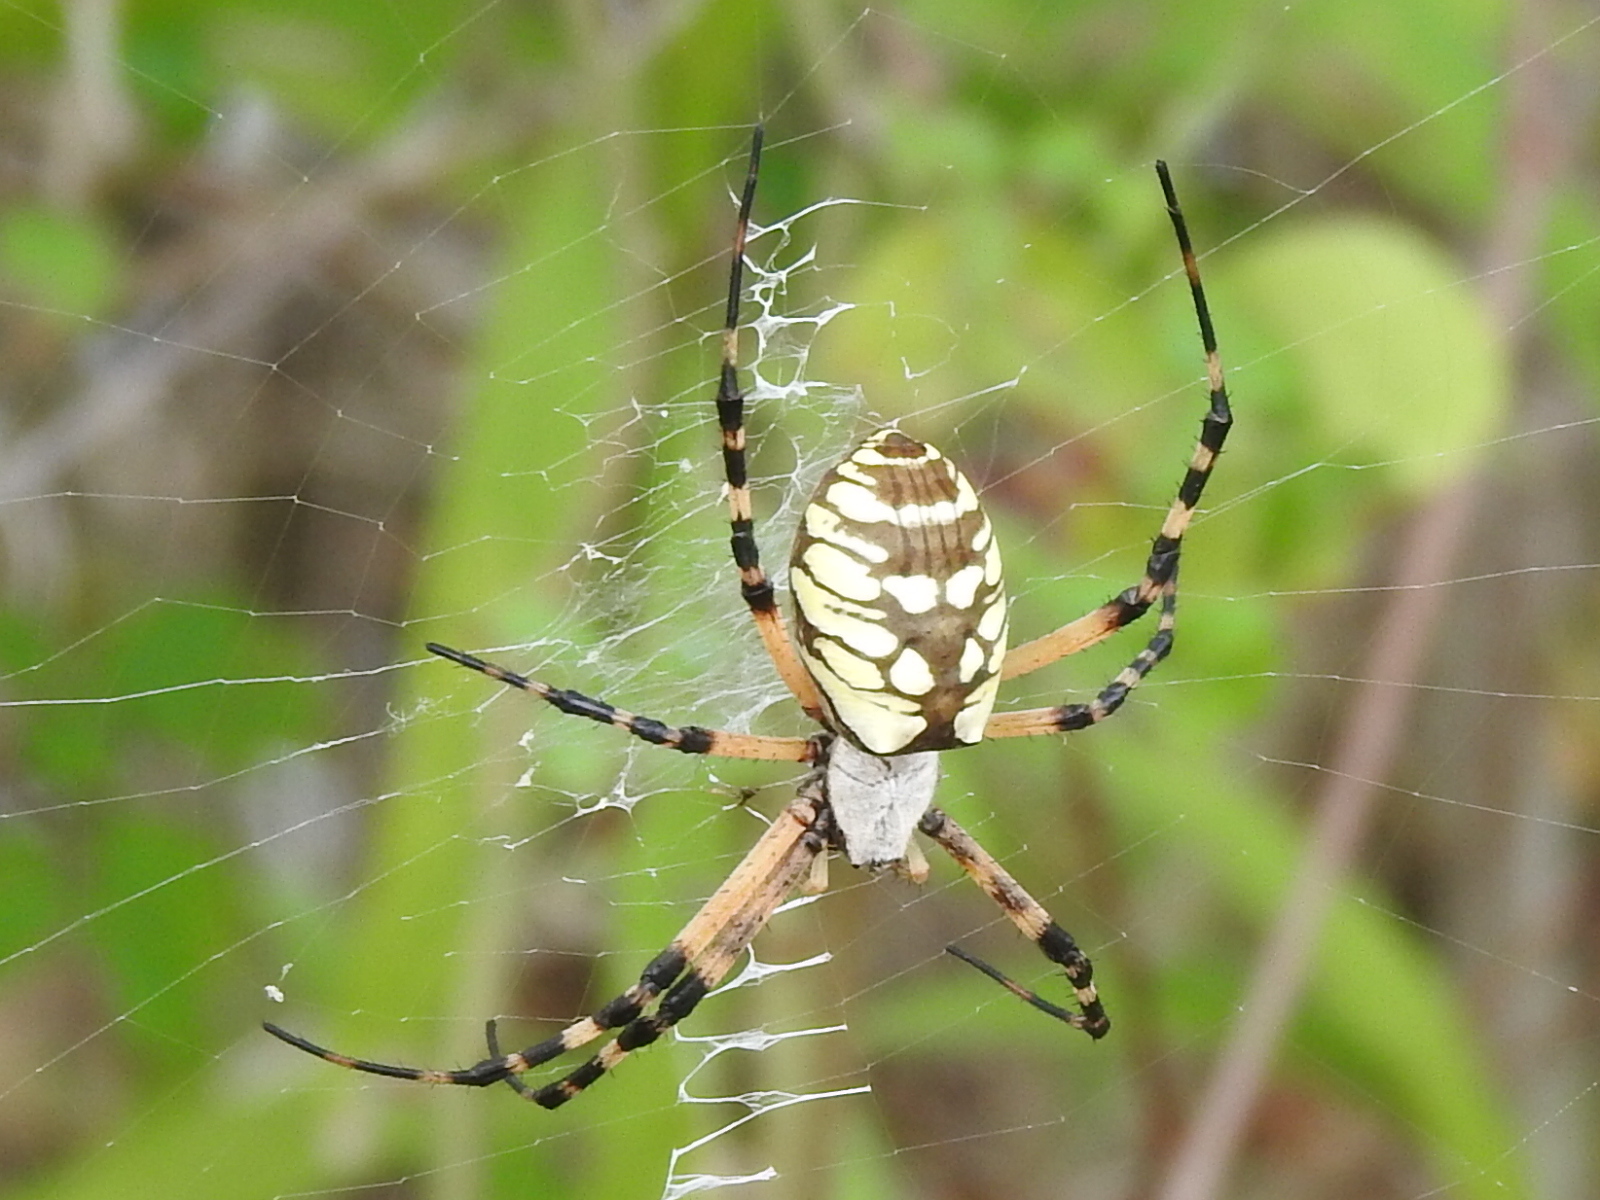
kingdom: Animalia
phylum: Arthropoda
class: Arachnida
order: Araneae
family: Araneidae
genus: Argiope
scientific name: Argiope aurantia
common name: Orb weavers
